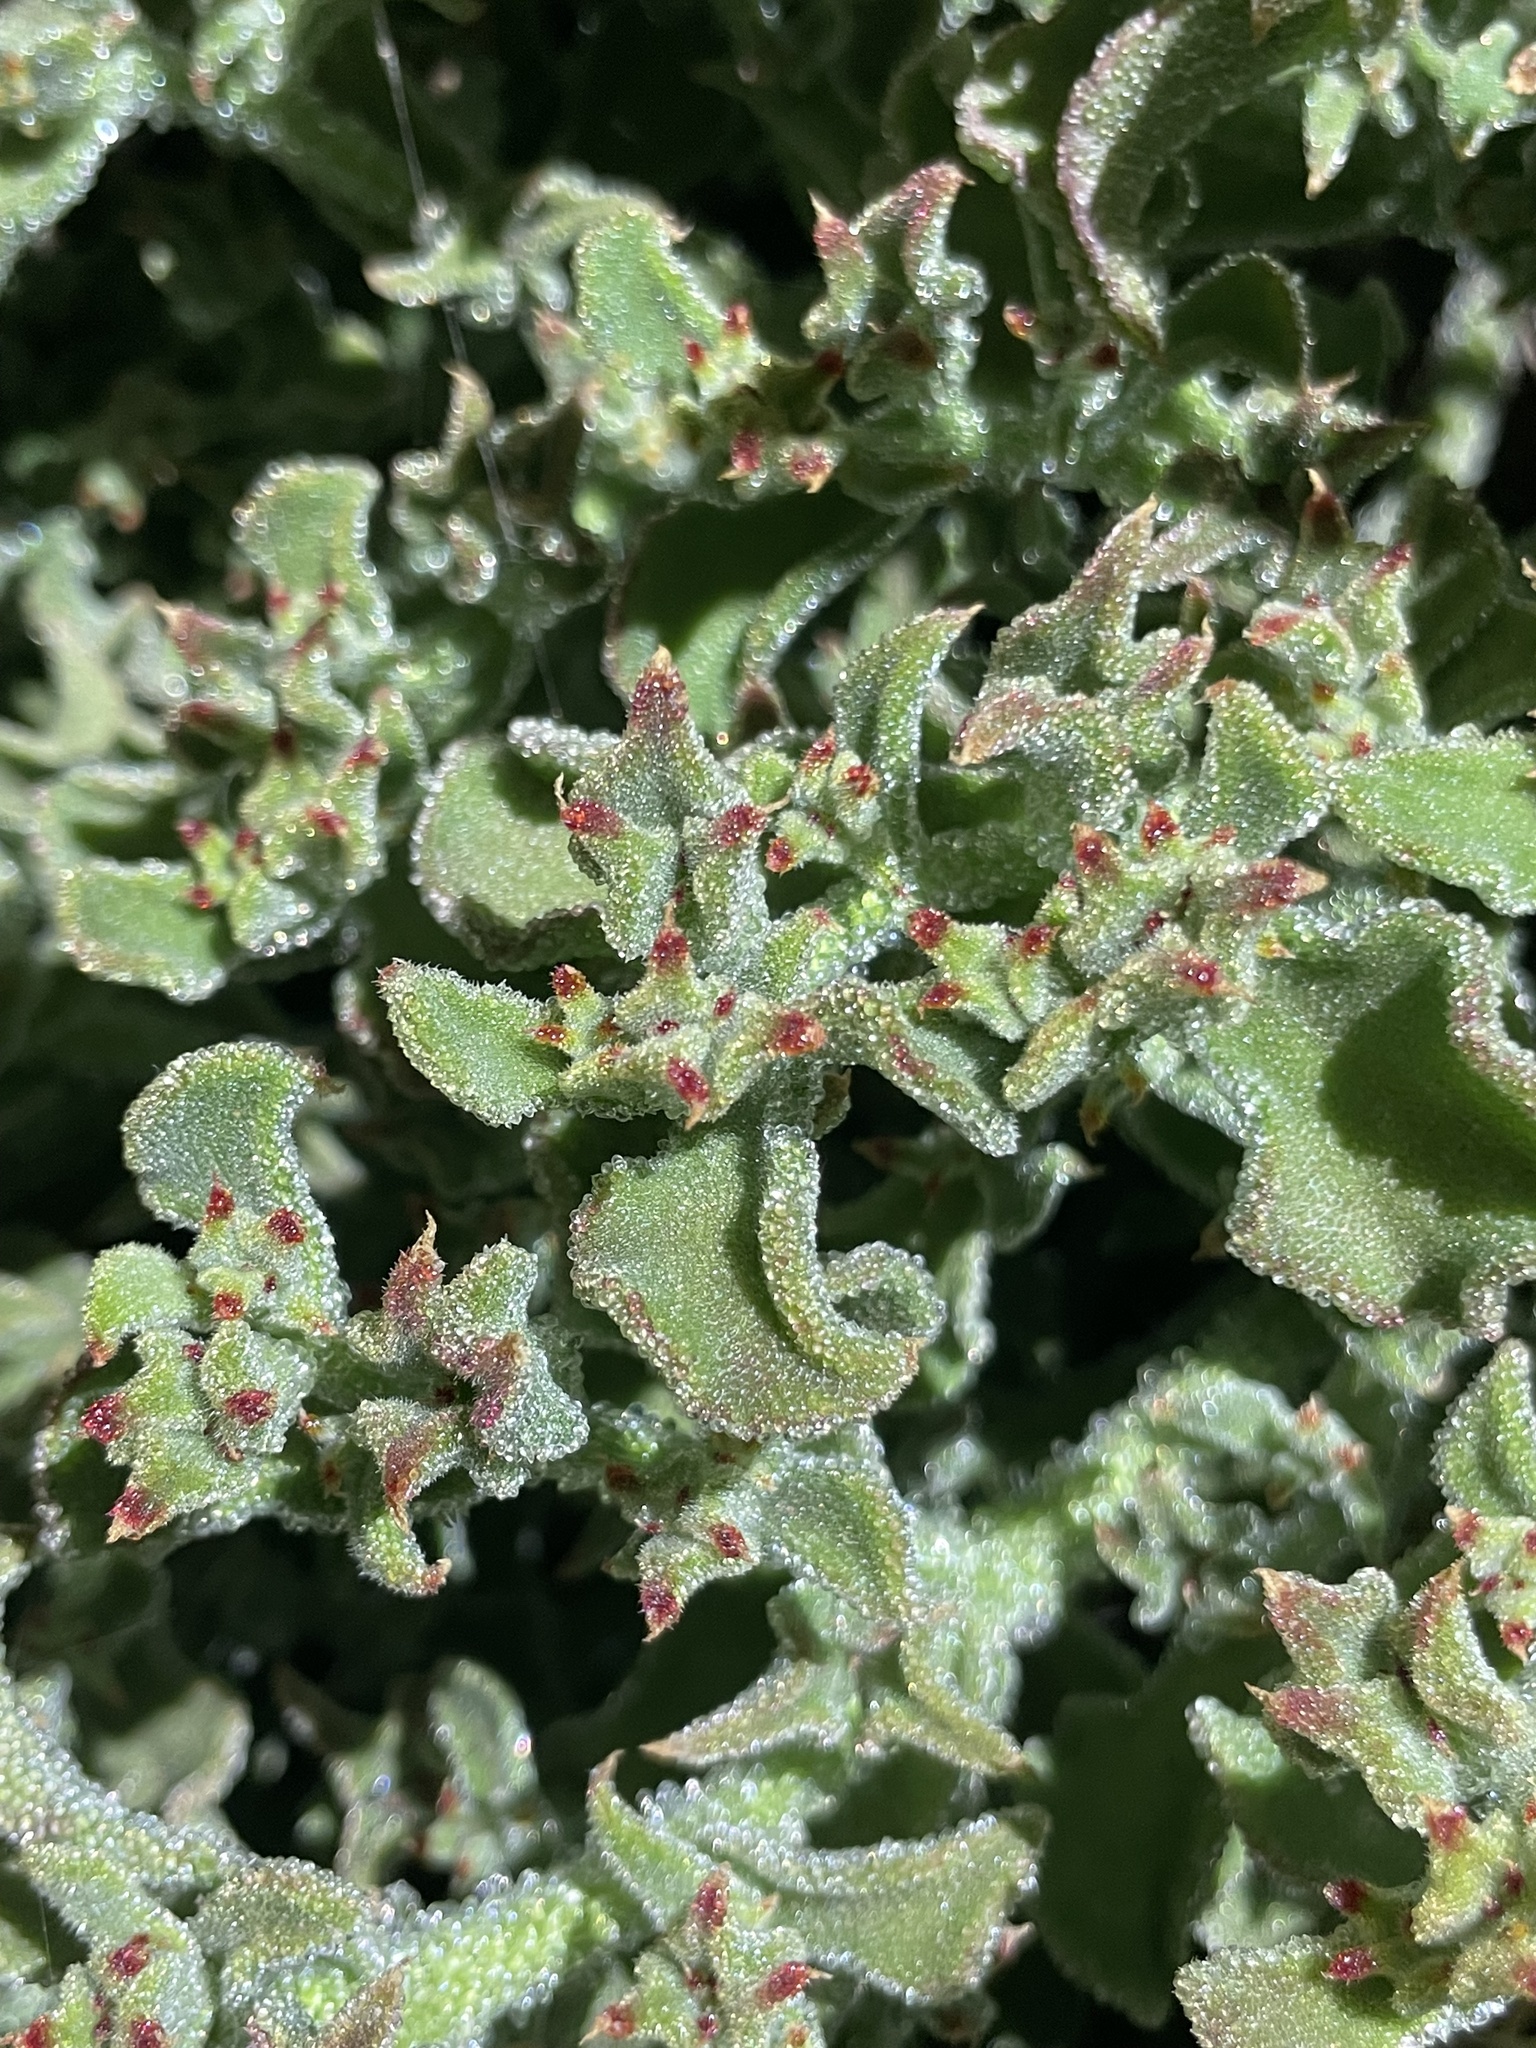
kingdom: Plantae
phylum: Tracheophyta
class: Magnoliopsida
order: Caryophyllales
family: Aizoaceae
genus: Mesembryanthemum
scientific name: Mesembryanthemum crystallinum
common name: Common iceplant
